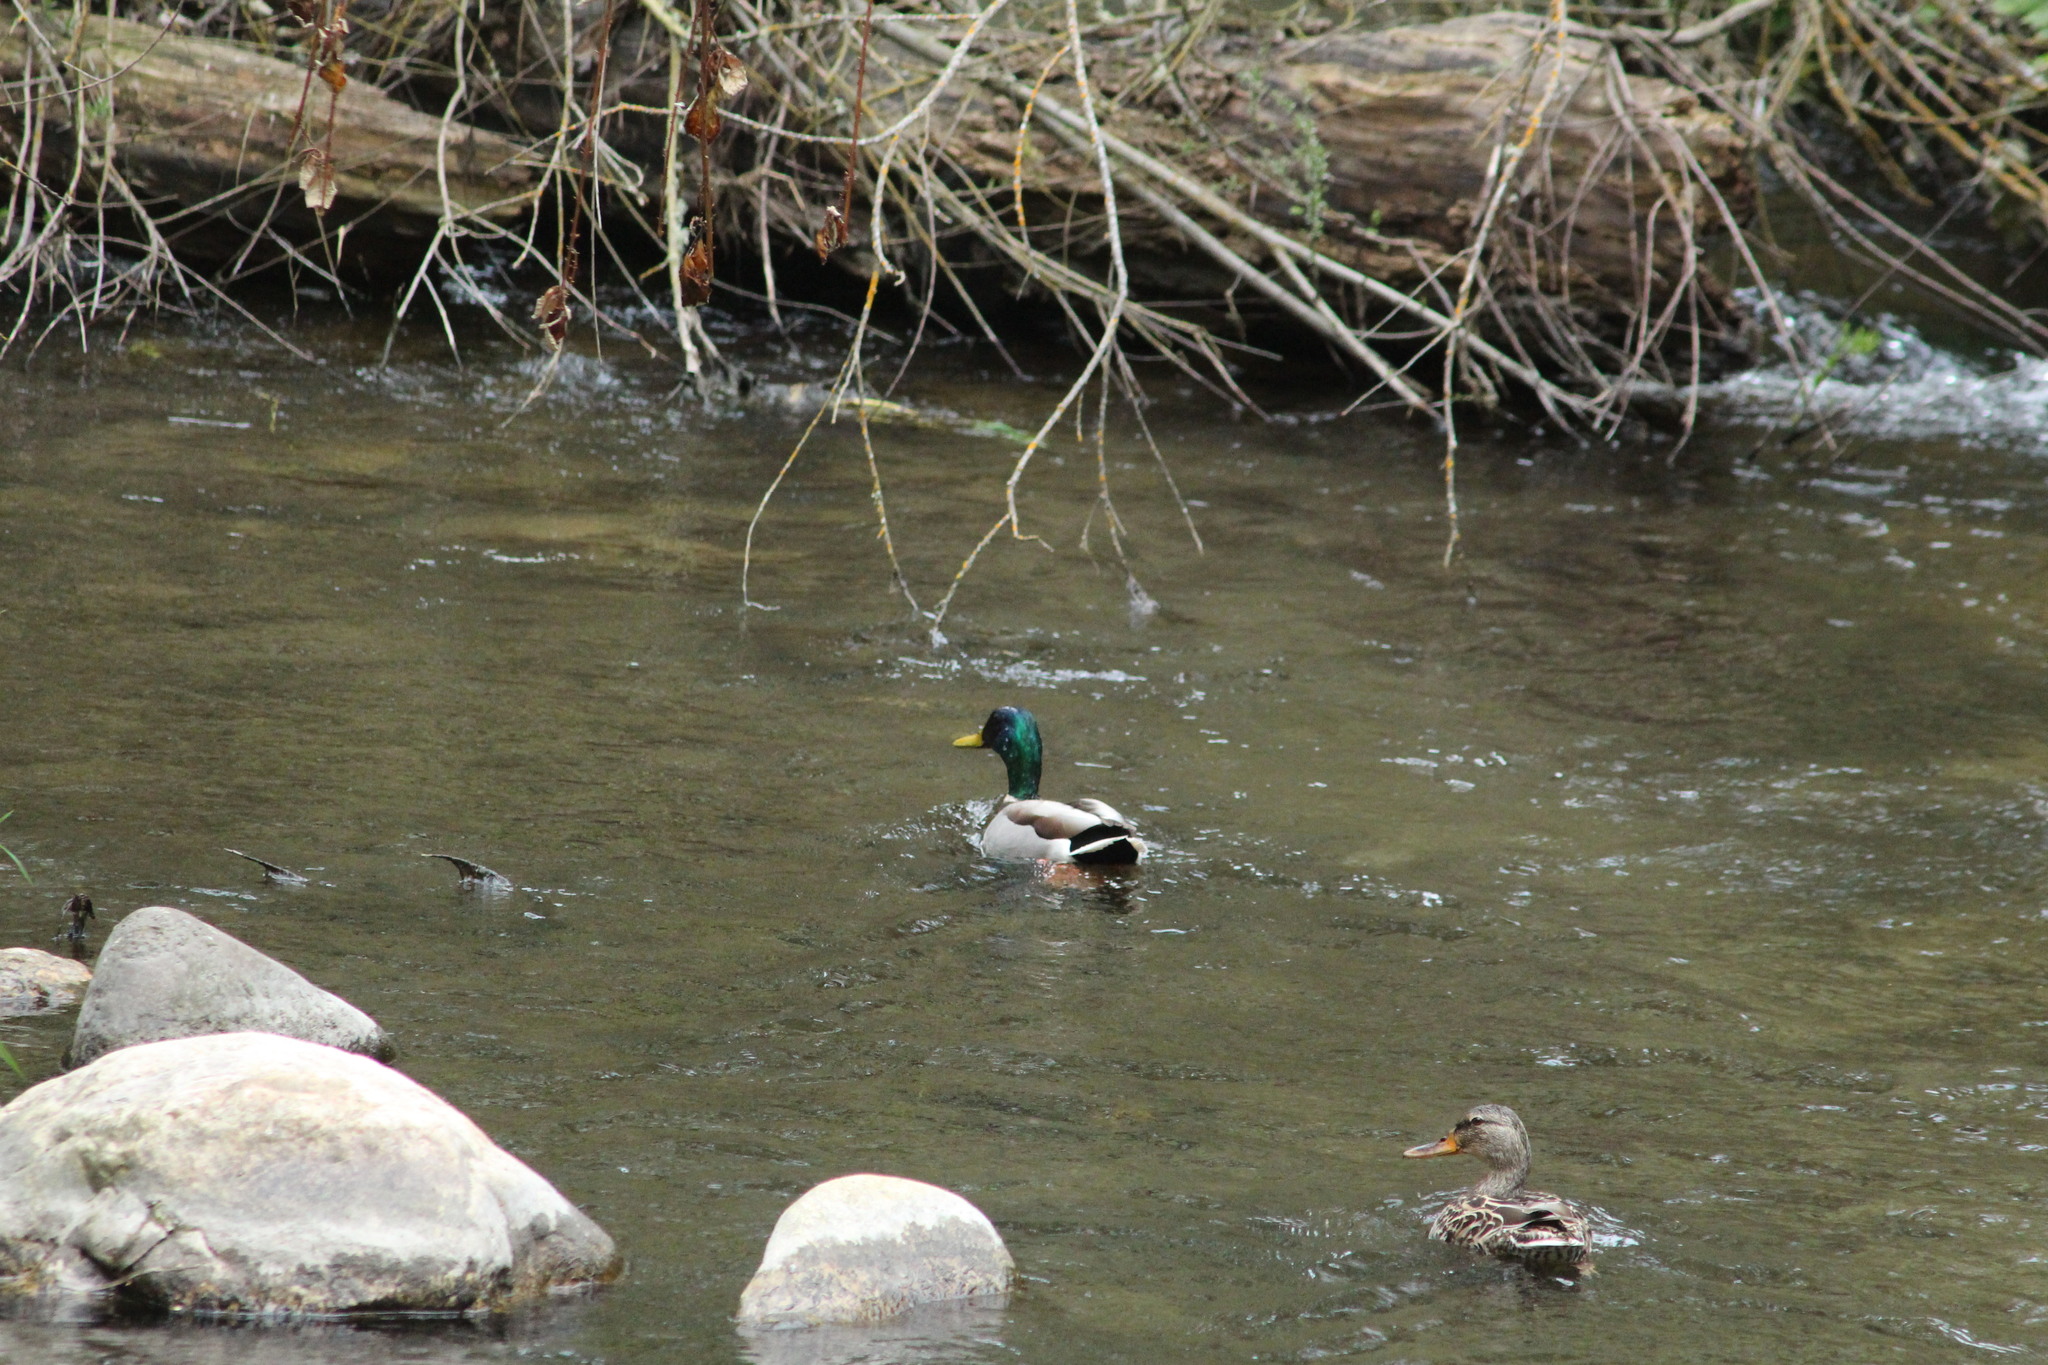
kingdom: Animalia
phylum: Chordata
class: Aves
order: Anseriformes
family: Anatidae
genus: Anas
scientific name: Anas platyrhynchos
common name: Mallard
